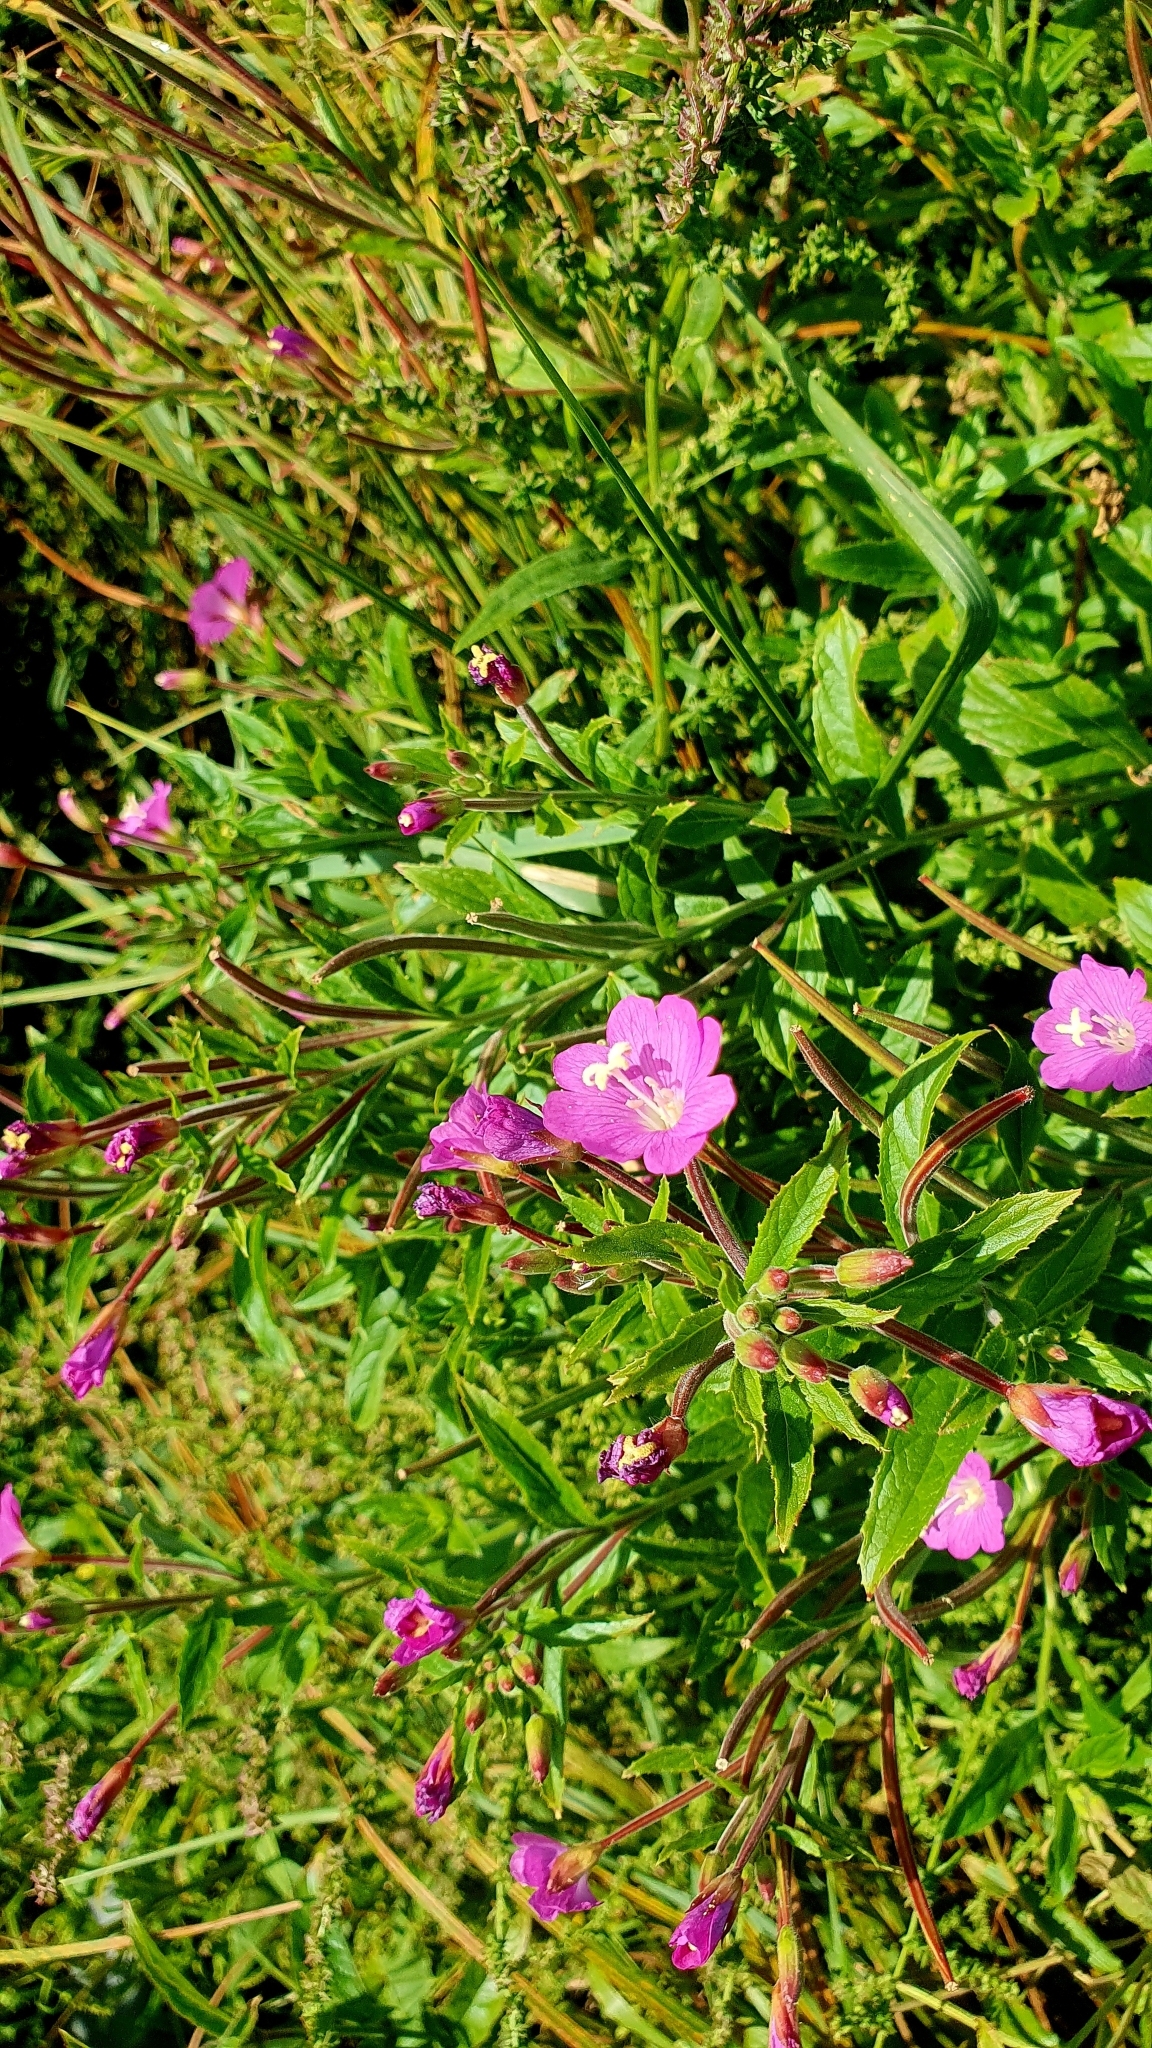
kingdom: Plantae
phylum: Tracheophyta
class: Magnoliopsida
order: Myrtales
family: Onagraceae
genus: Epilobium
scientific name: Epilobium hirsutum
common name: Great willowherb
